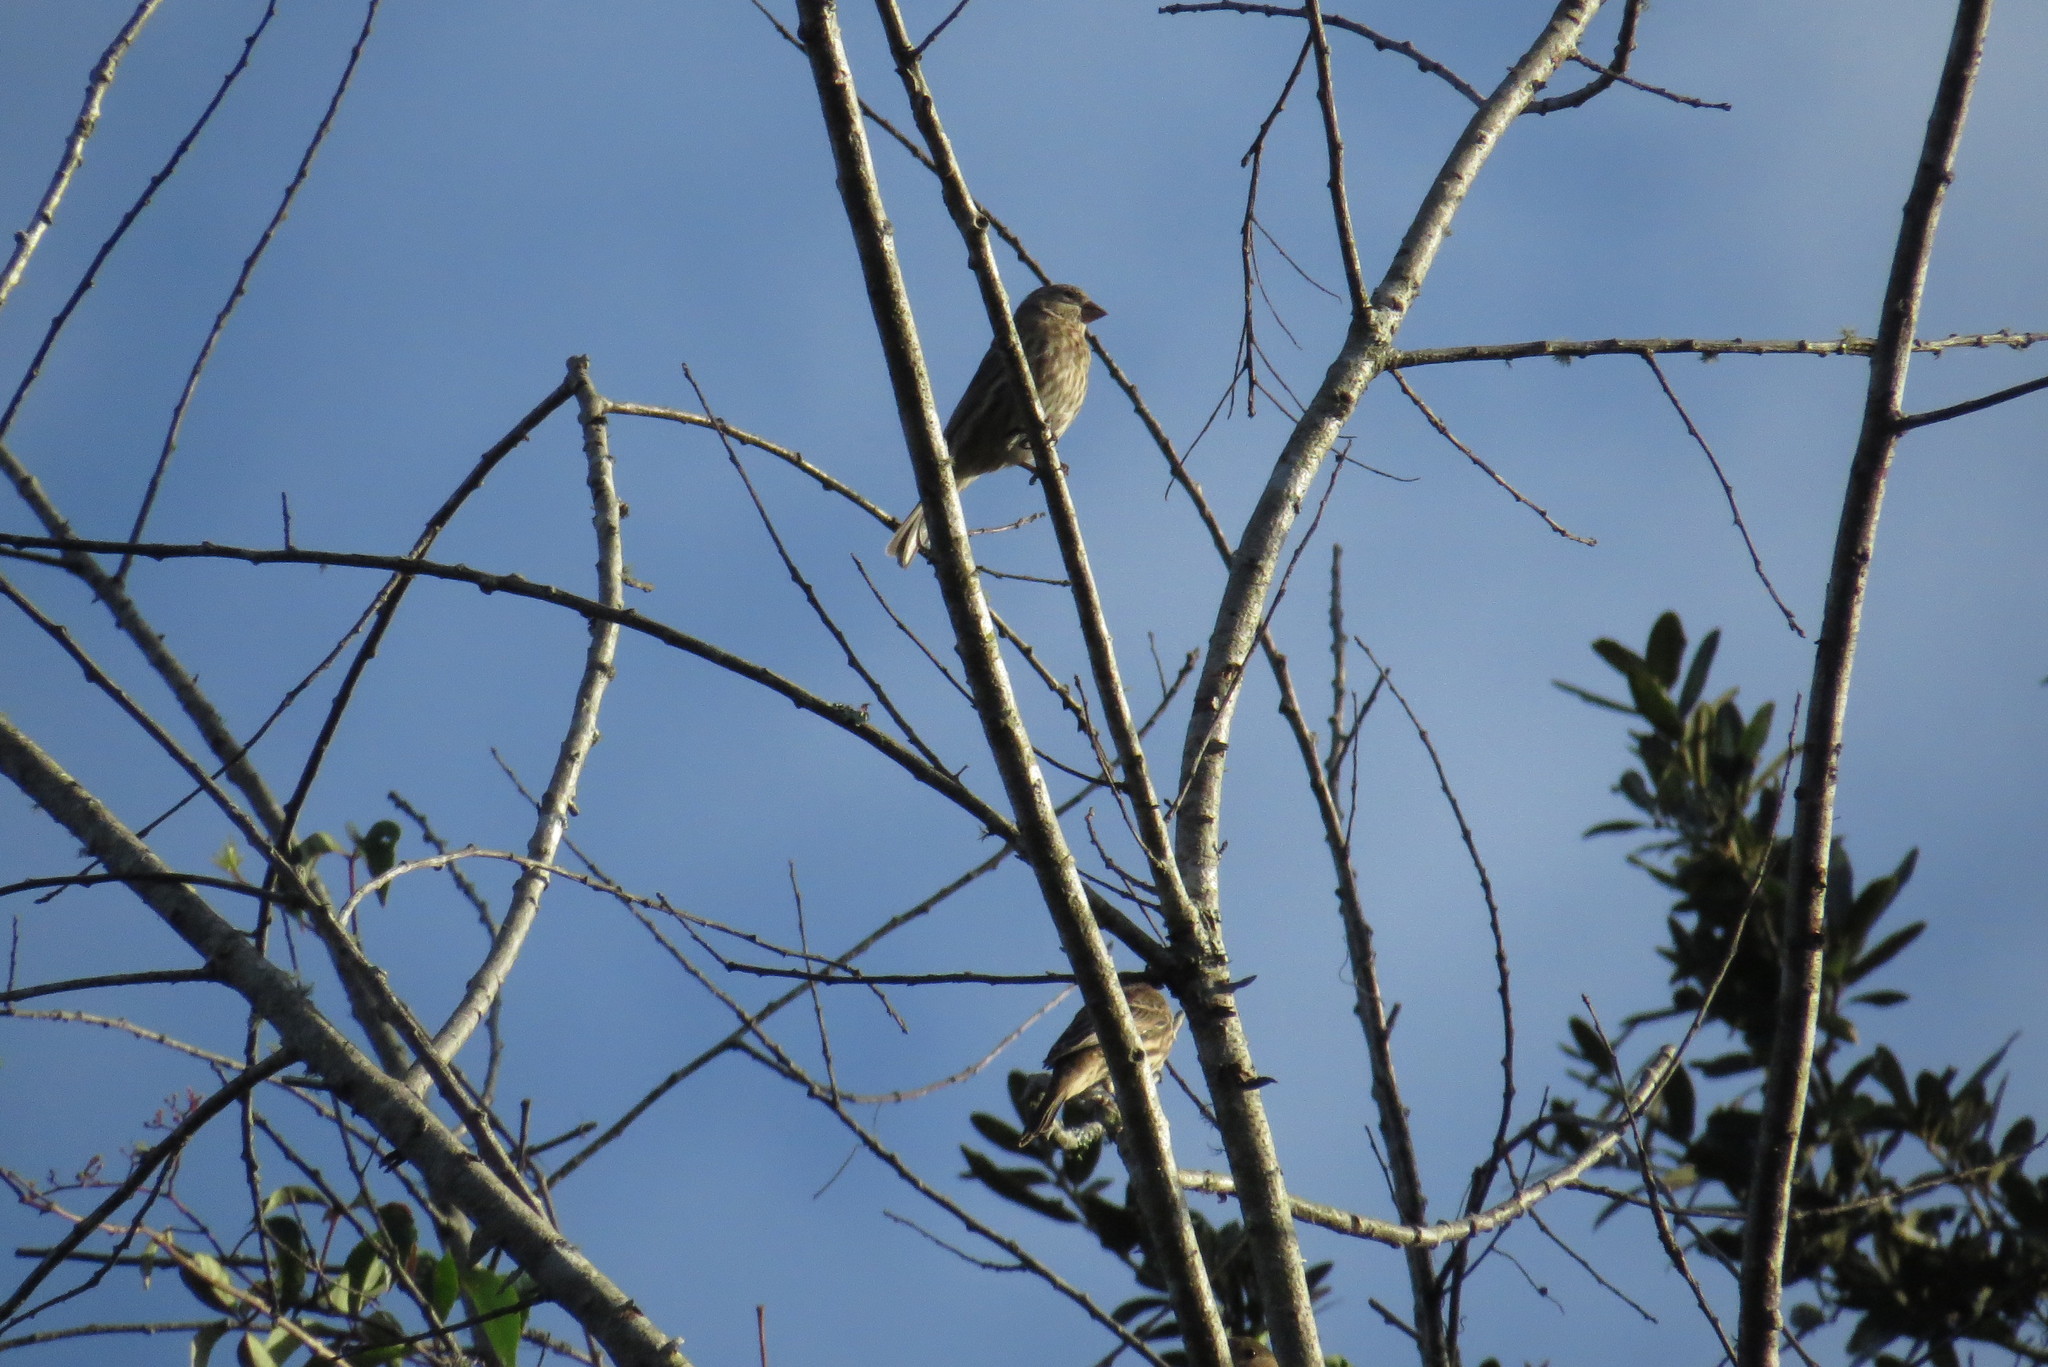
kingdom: Animalia
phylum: Chordata
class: Aves
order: Passeriformes
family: Fringillidae
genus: Haemorhous
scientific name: Haemorhous mexicanus
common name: House finch
